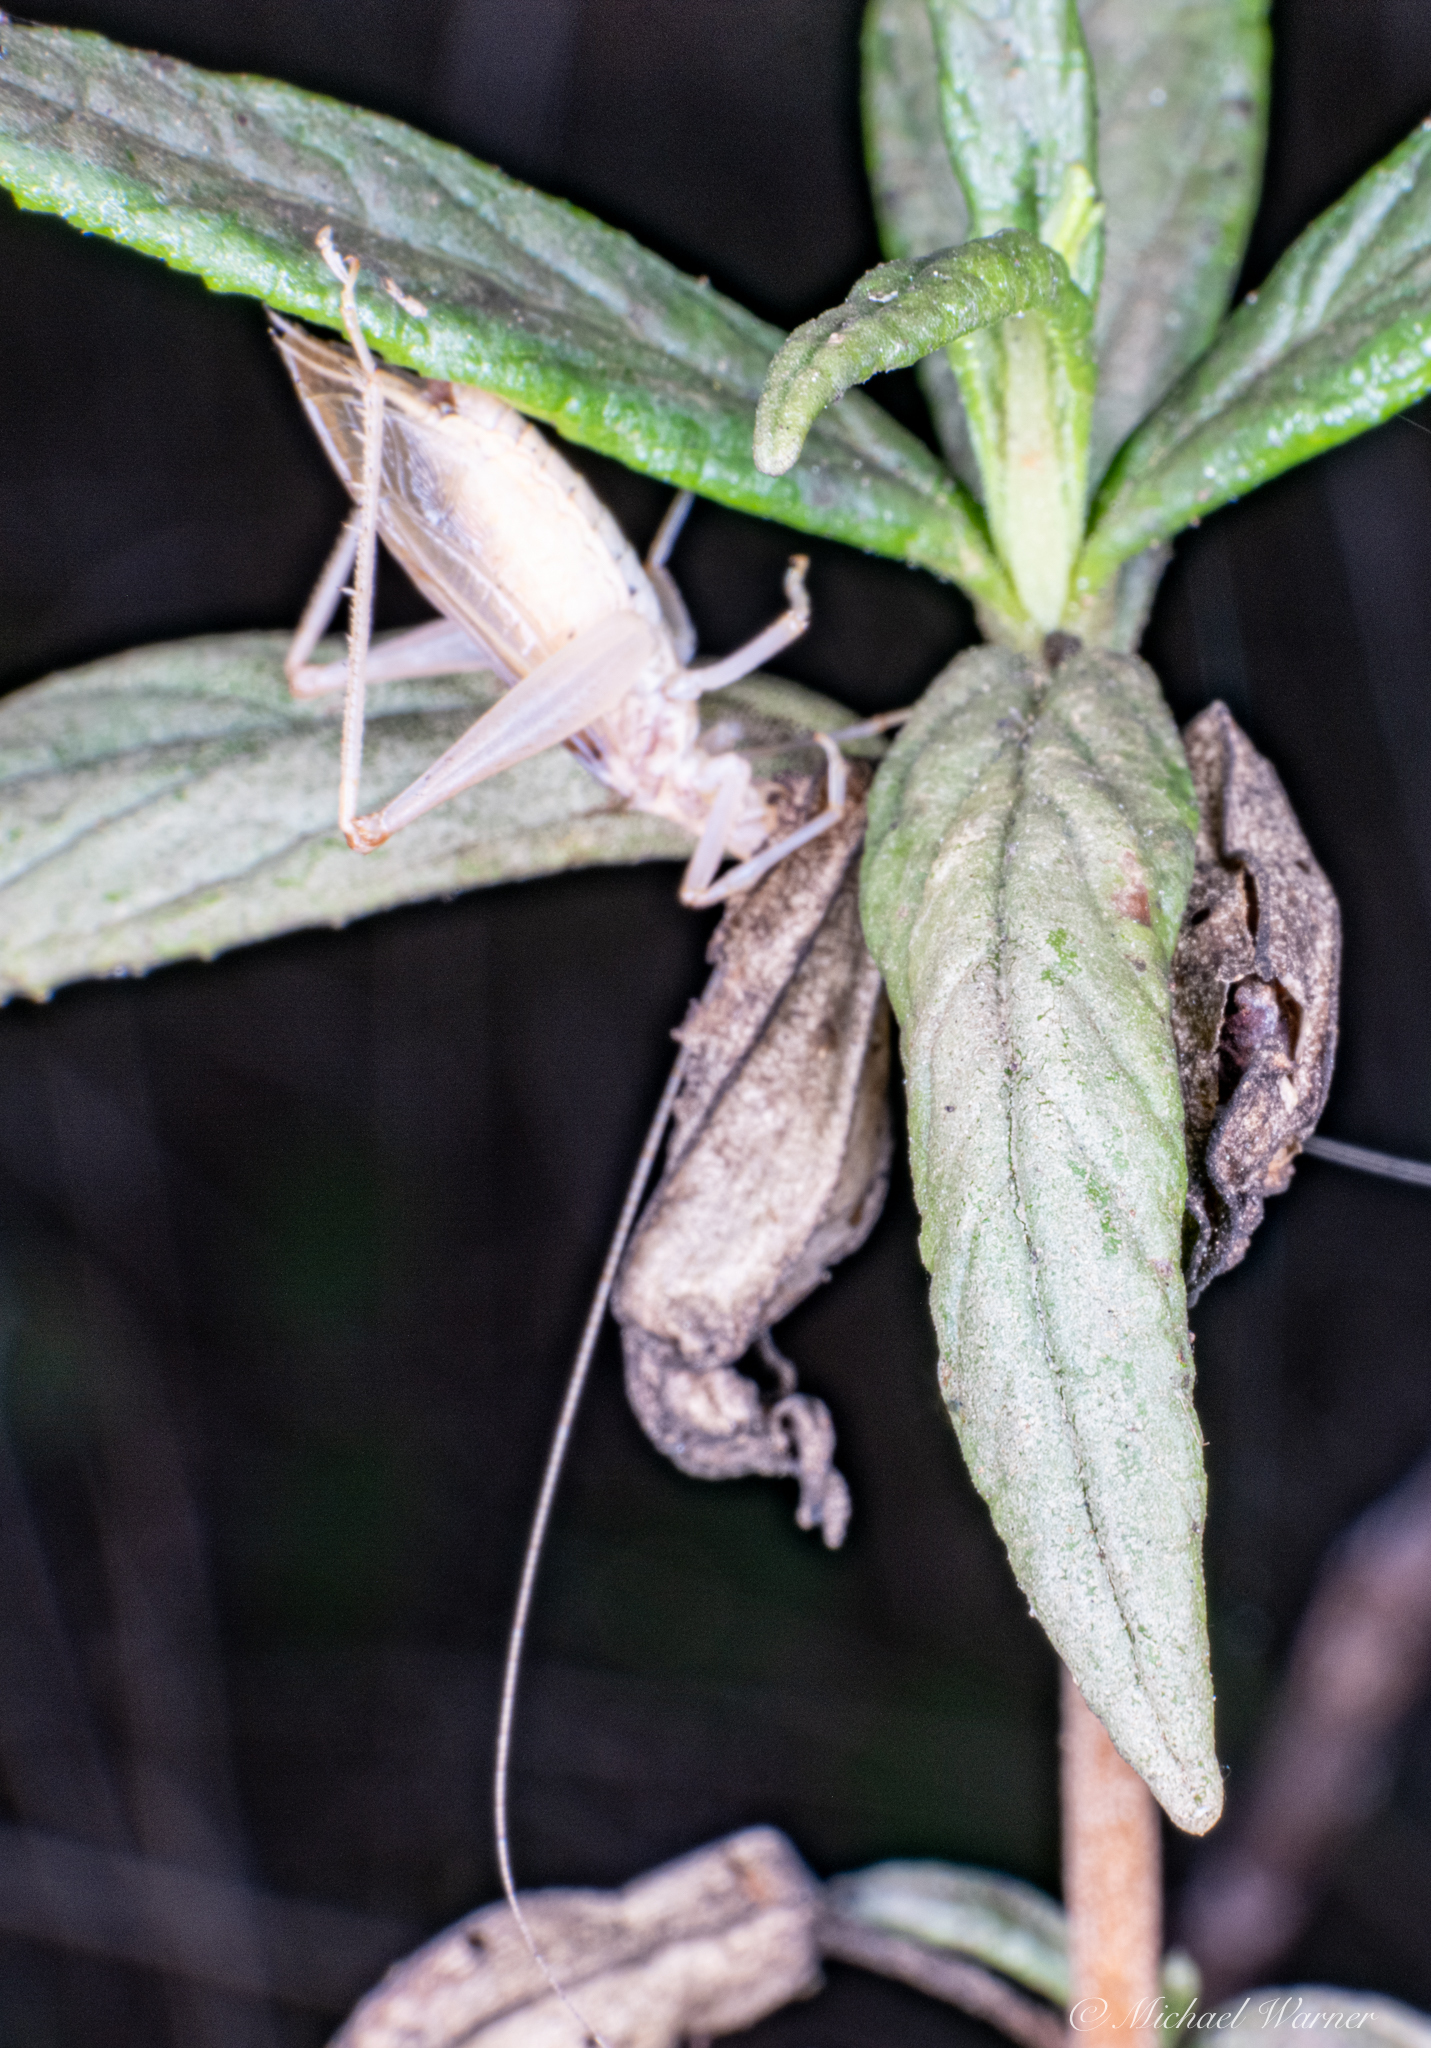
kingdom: Animalia
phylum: Arthropoda
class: Insecta
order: Orthoptera
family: Gryllidae
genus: Oecanthus
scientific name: Oecanthus californicus
